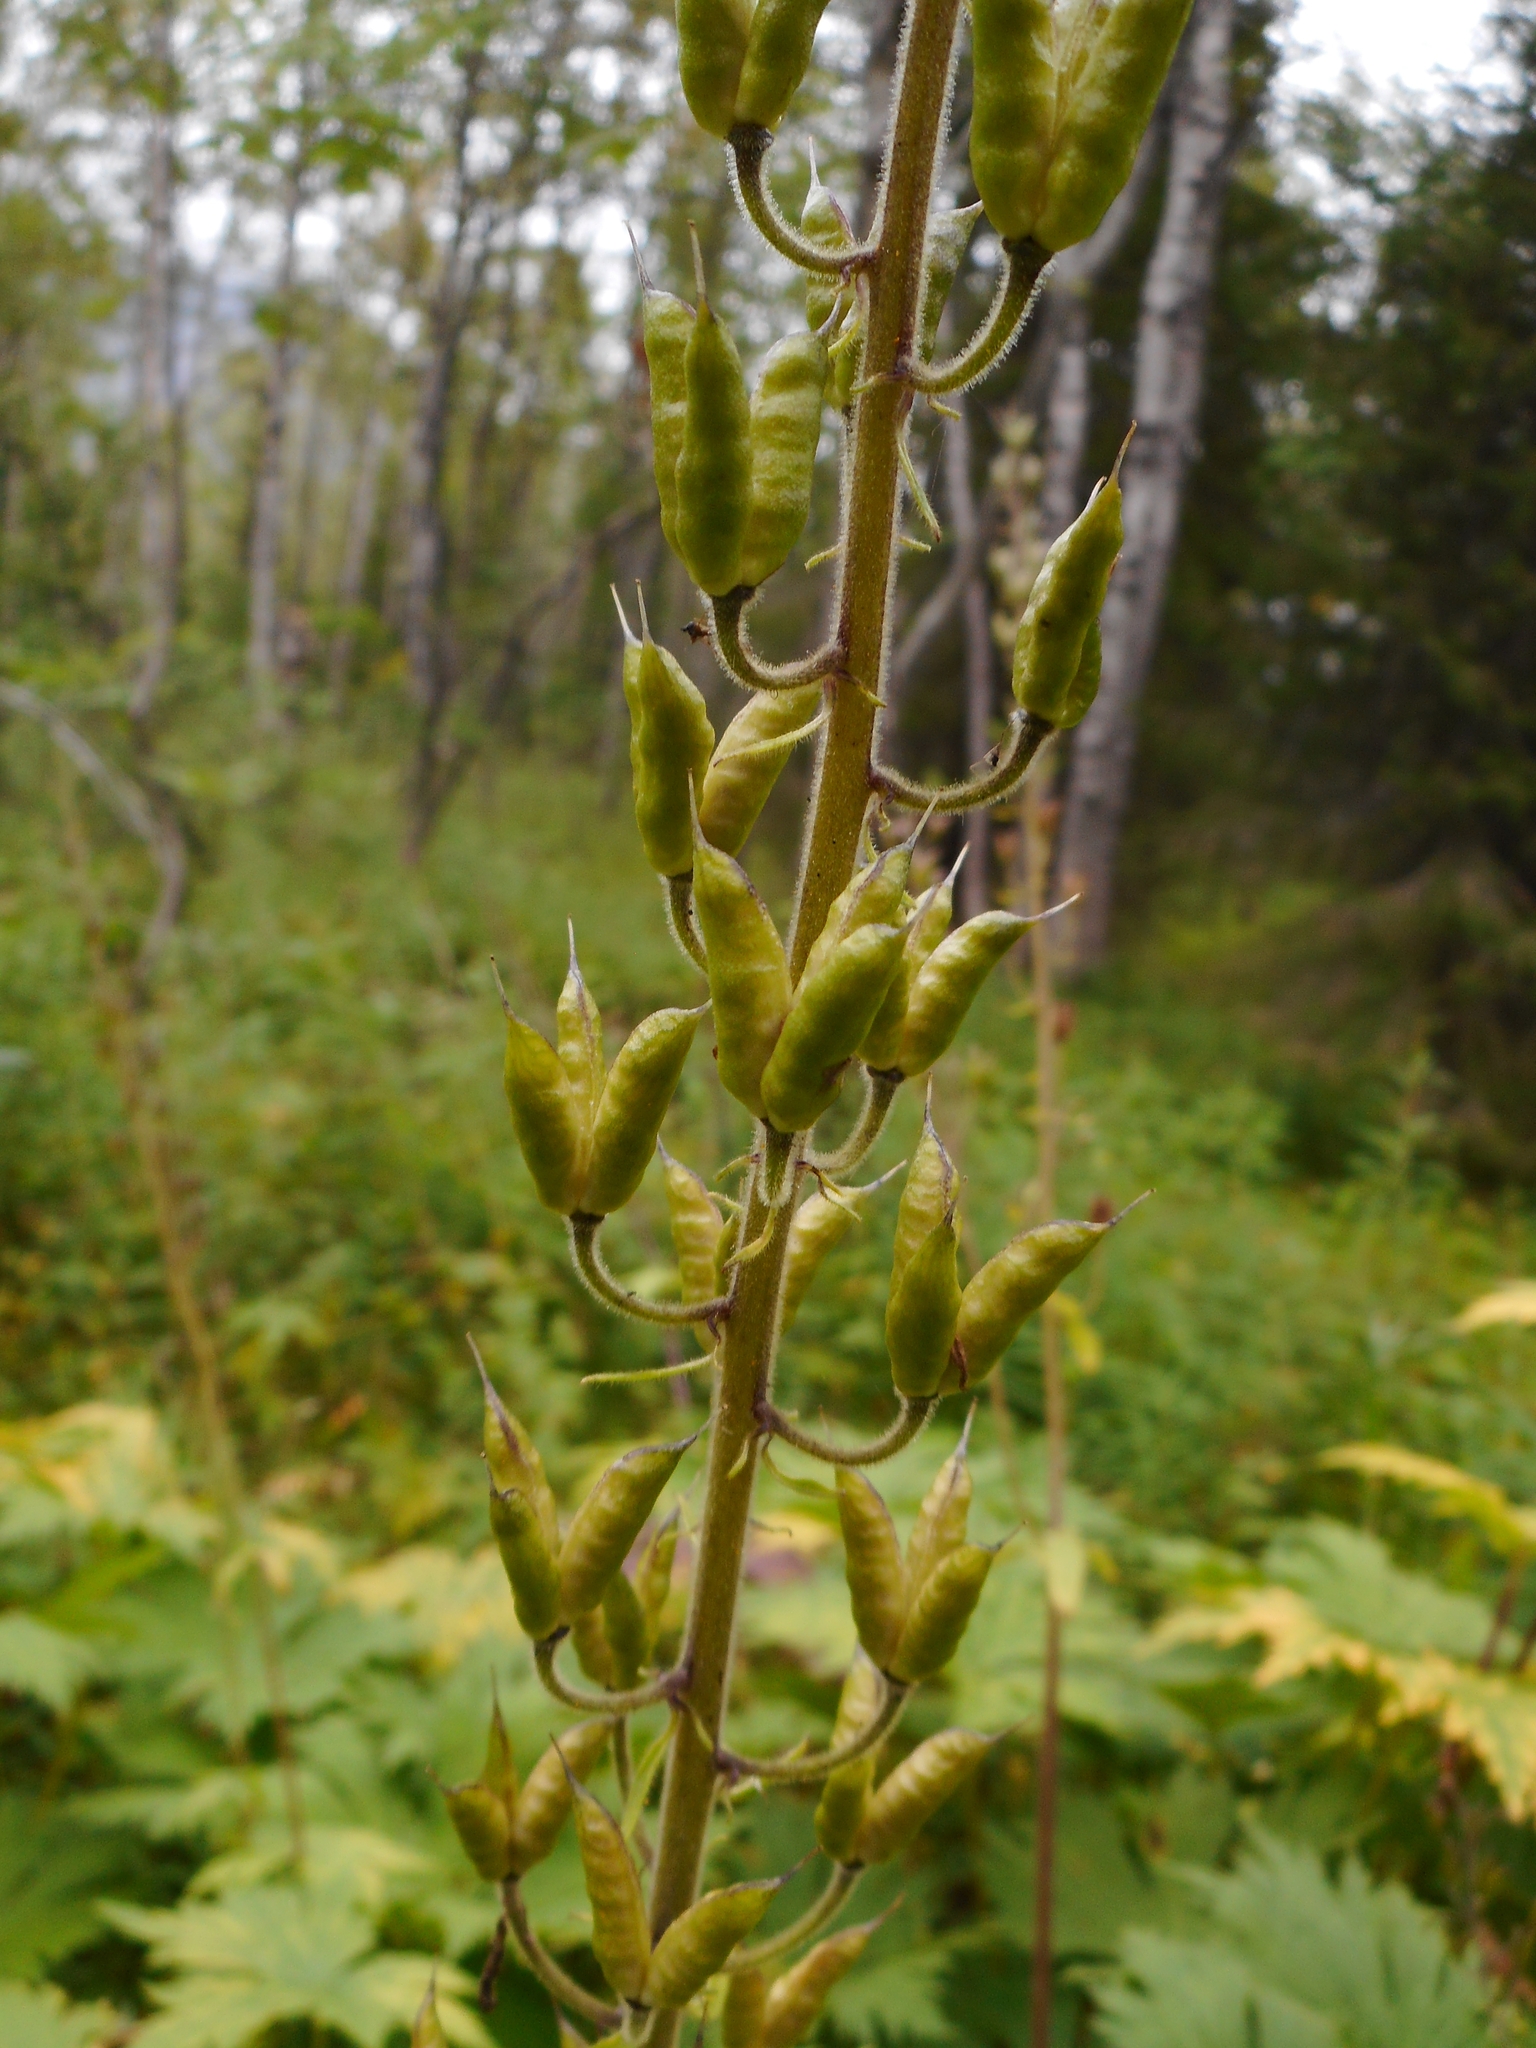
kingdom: Plantae
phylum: Tracheophyta
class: Magnoliopsida
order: Ranunculales
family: Ranunculaceae
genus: Aconitum
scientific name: Aconitum septentrionale
